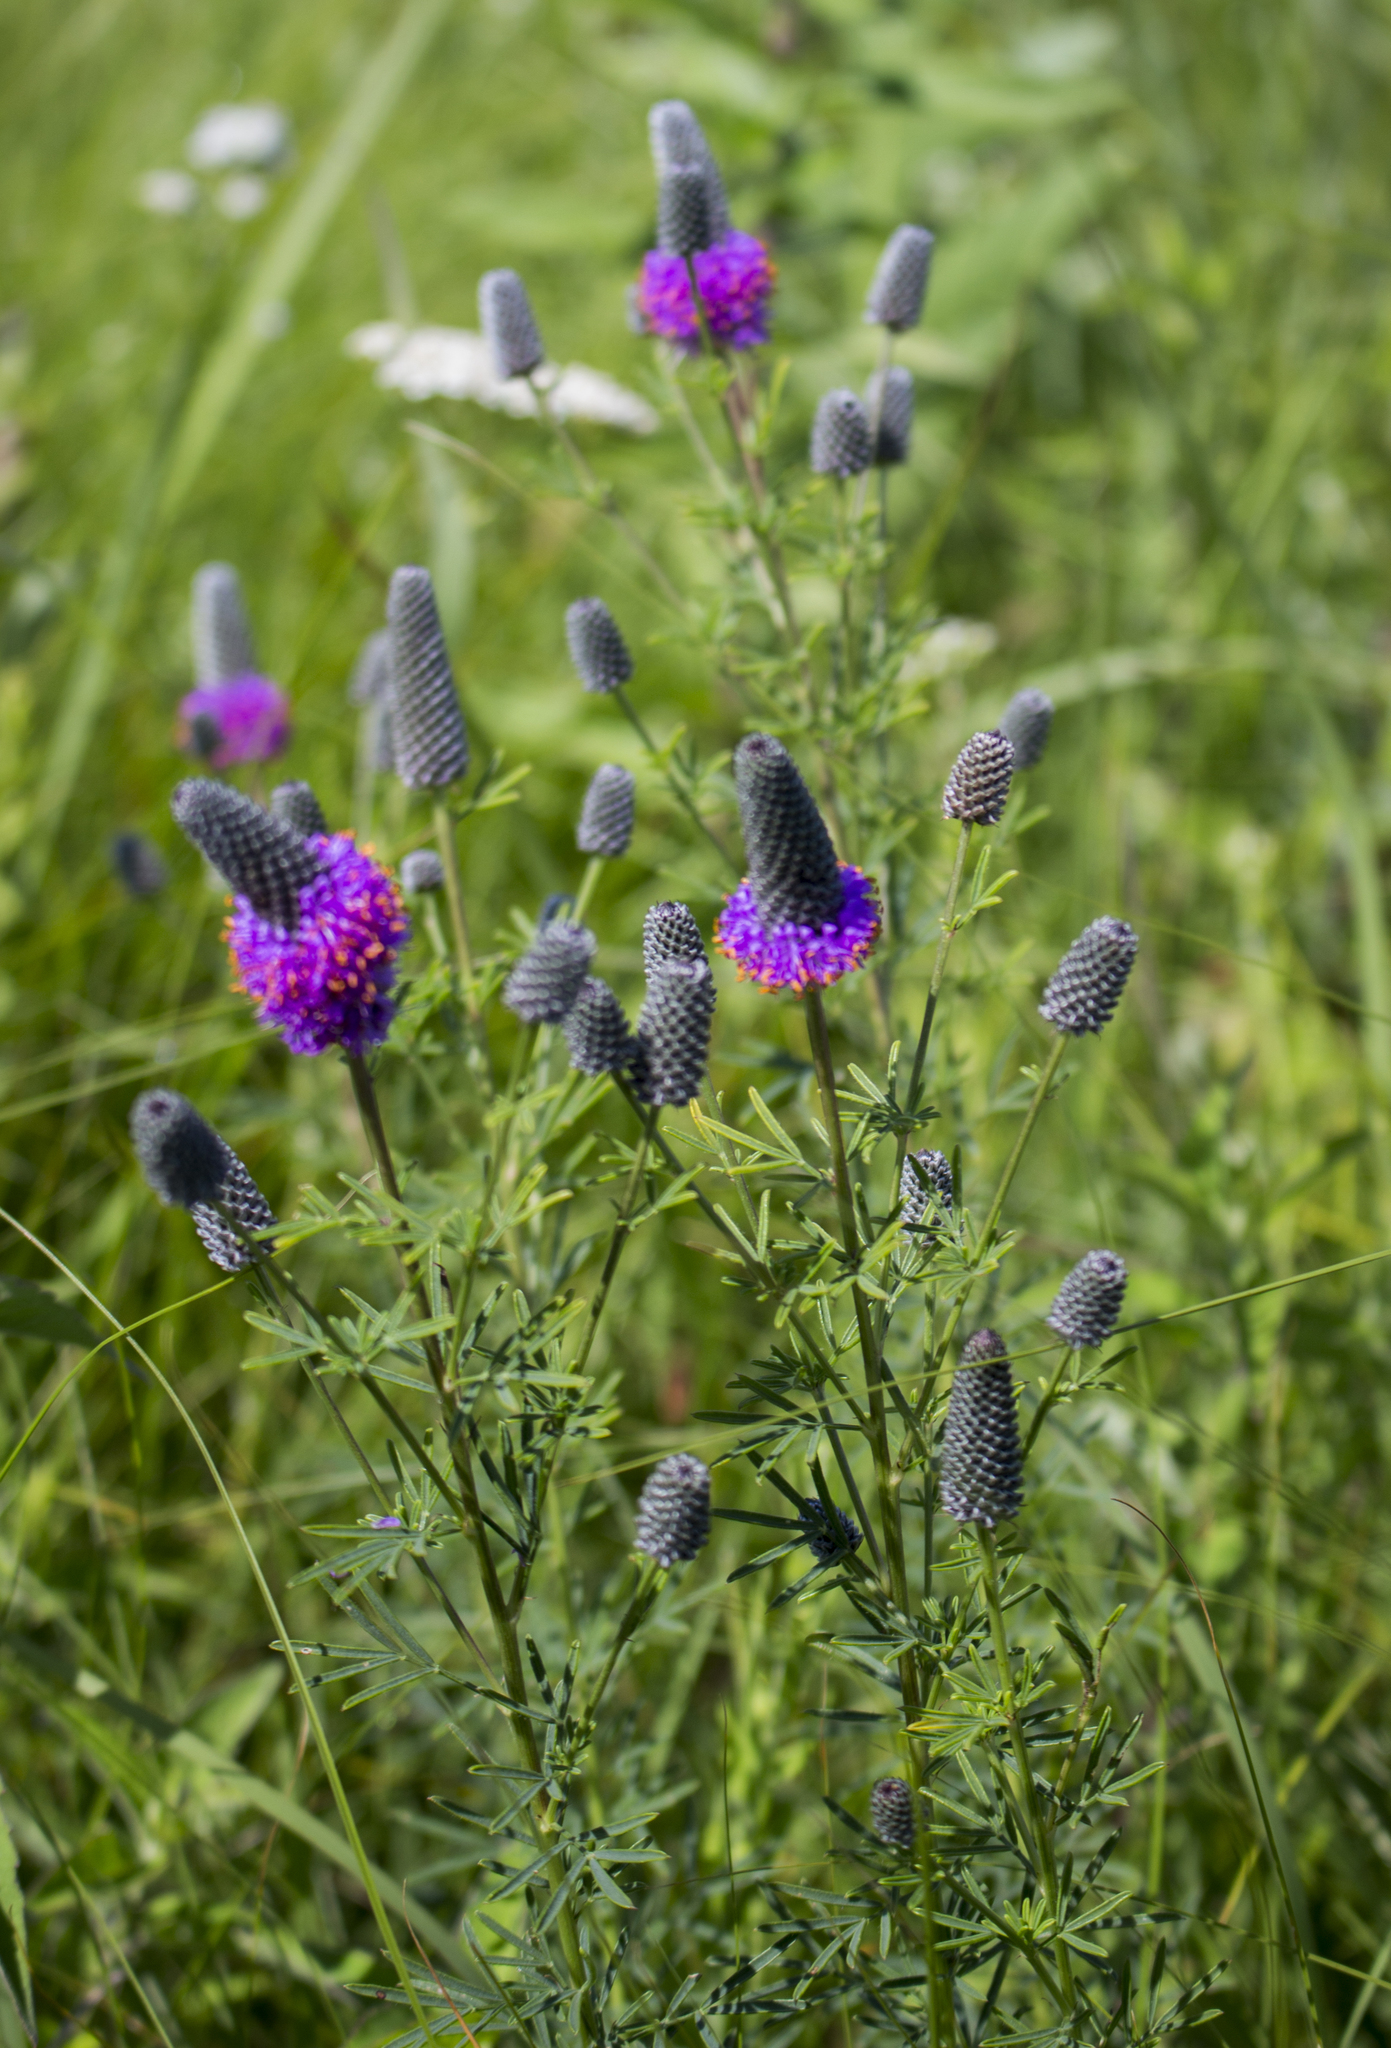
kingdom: Plantae
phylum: Tracheophyta
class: Magnoliopsida
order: Fabales
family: Fabaceae
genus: Dalea
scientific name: Dalea purpurea
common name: Purple prairie-clover
